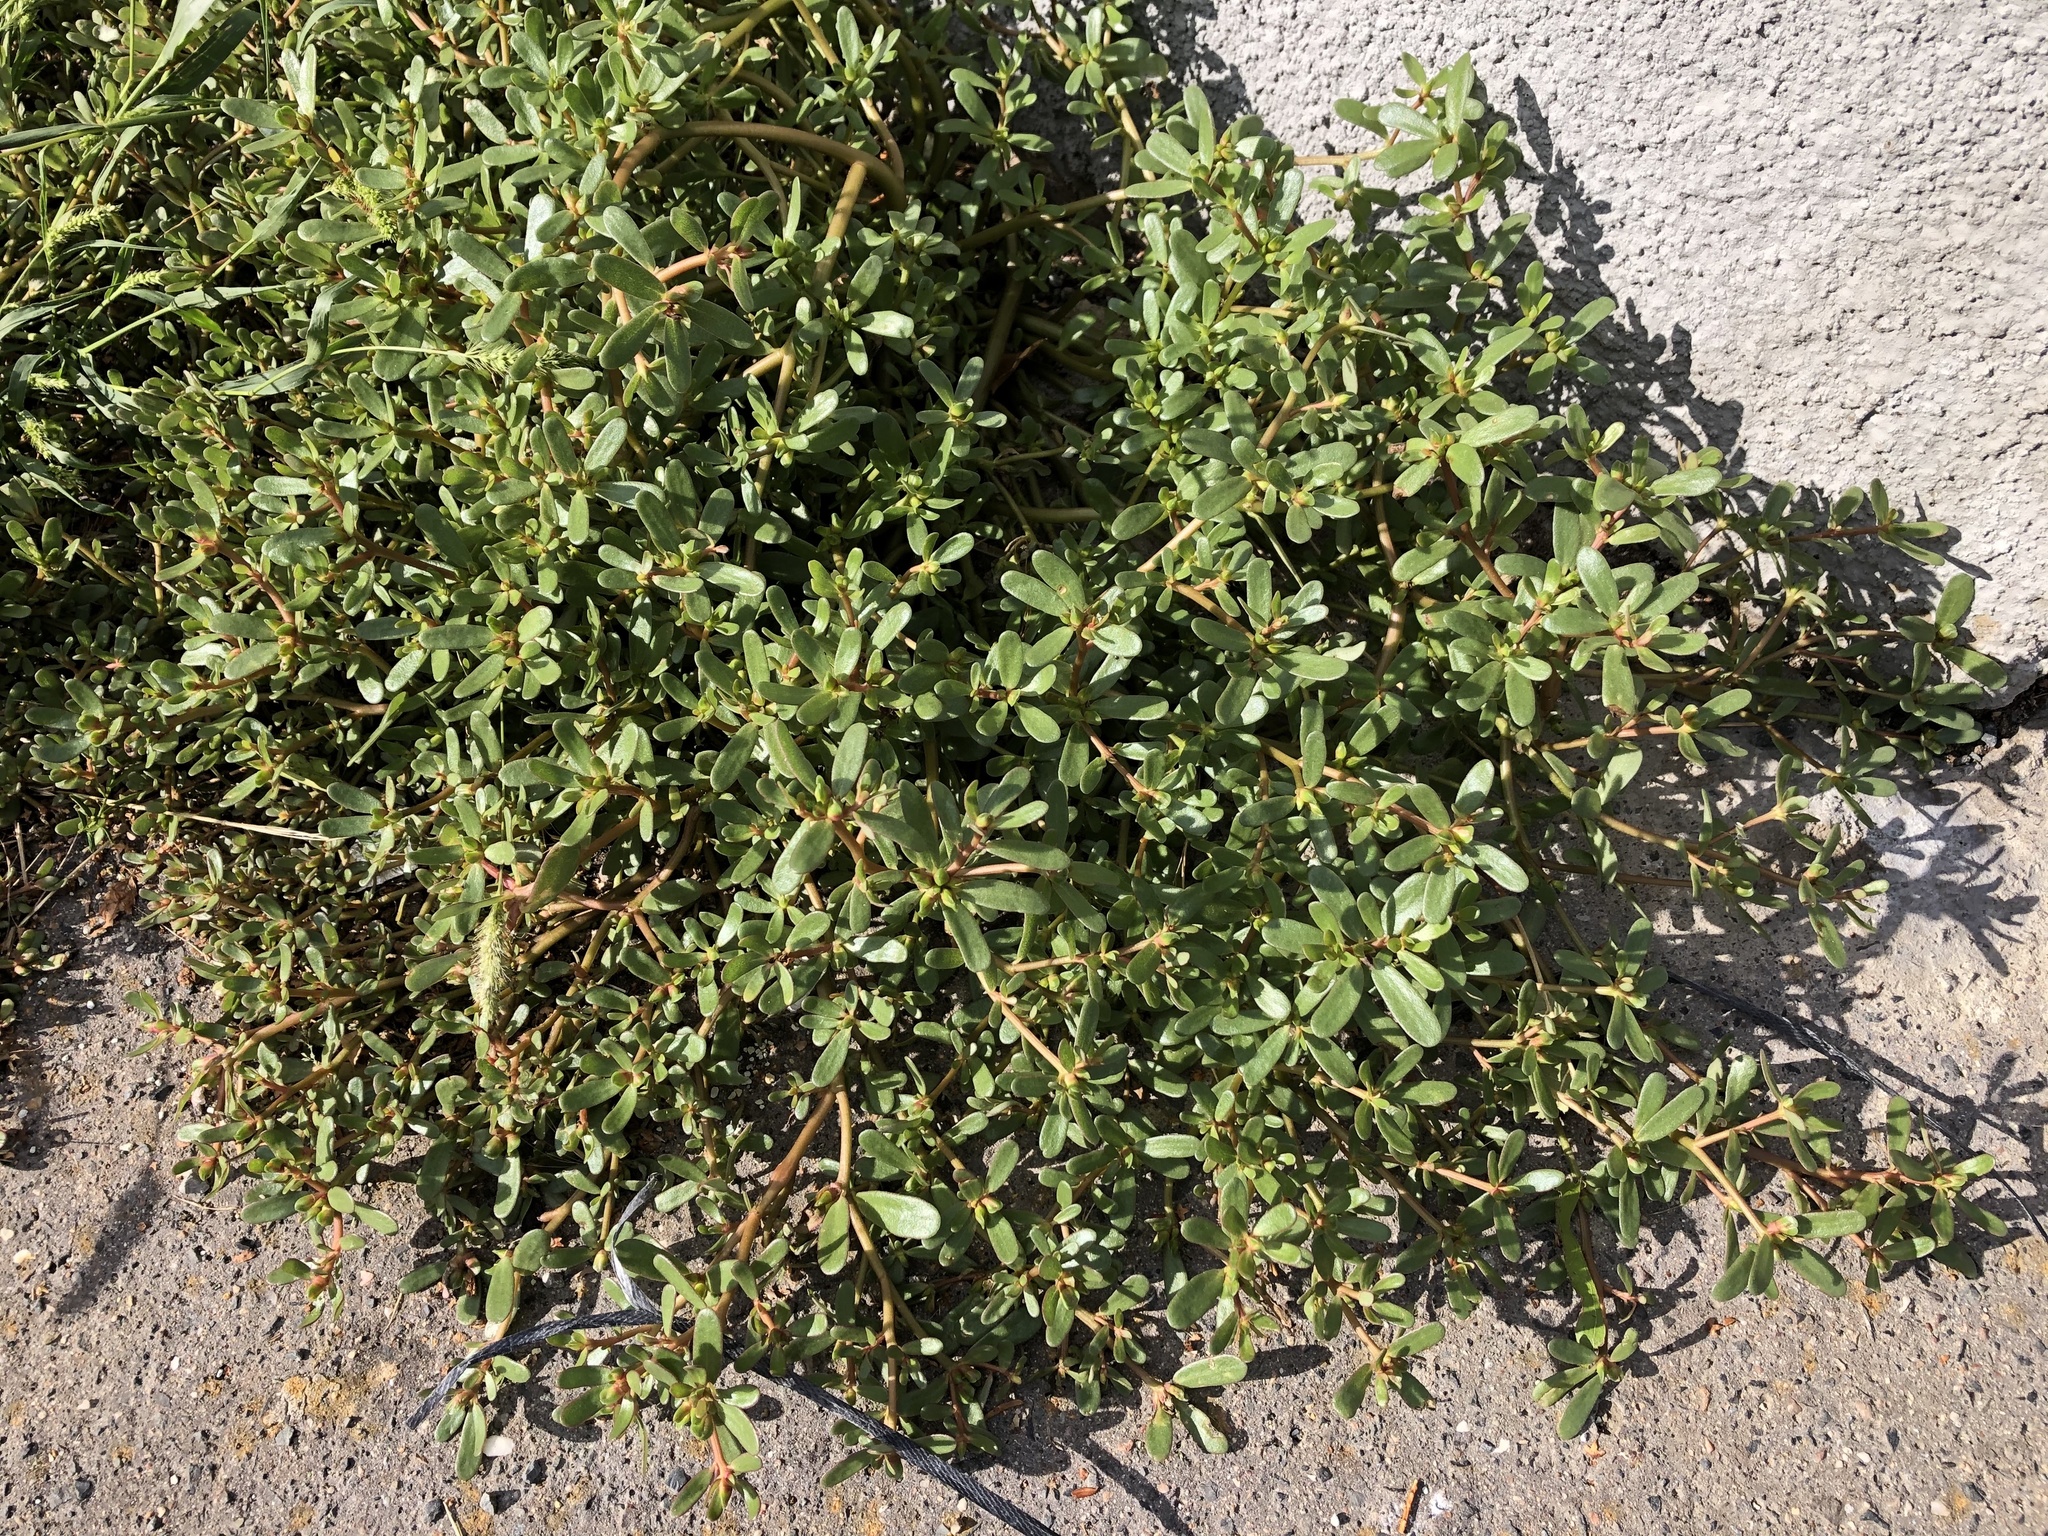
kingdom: Plantae
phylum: Tracheophyta
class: Magnoliopsida
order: Caryophyllales
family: Portulacaceae
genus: Portulaca
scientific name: Portulaca oleracea
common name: Common purslane
